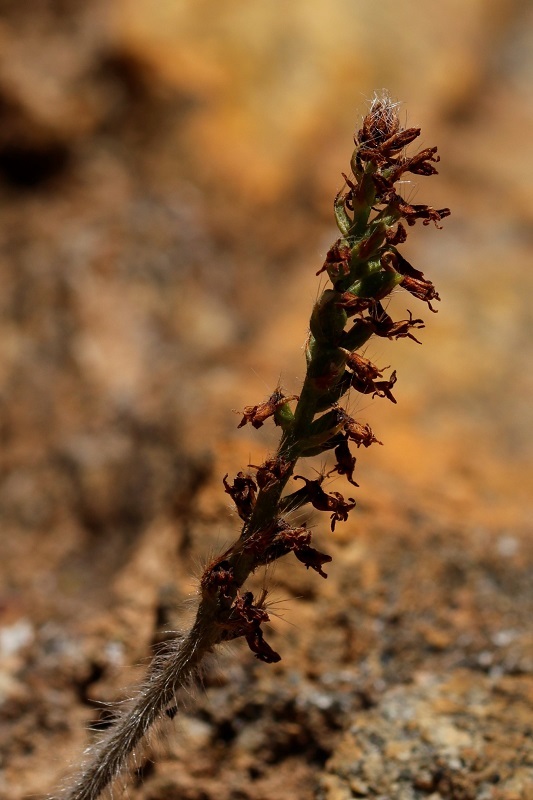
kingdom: Plantae
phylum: Tracheophyta
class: Liliopsida
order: Asparagales
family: Orchidaceae
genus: Holothrix
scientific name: Holothrix villosa
